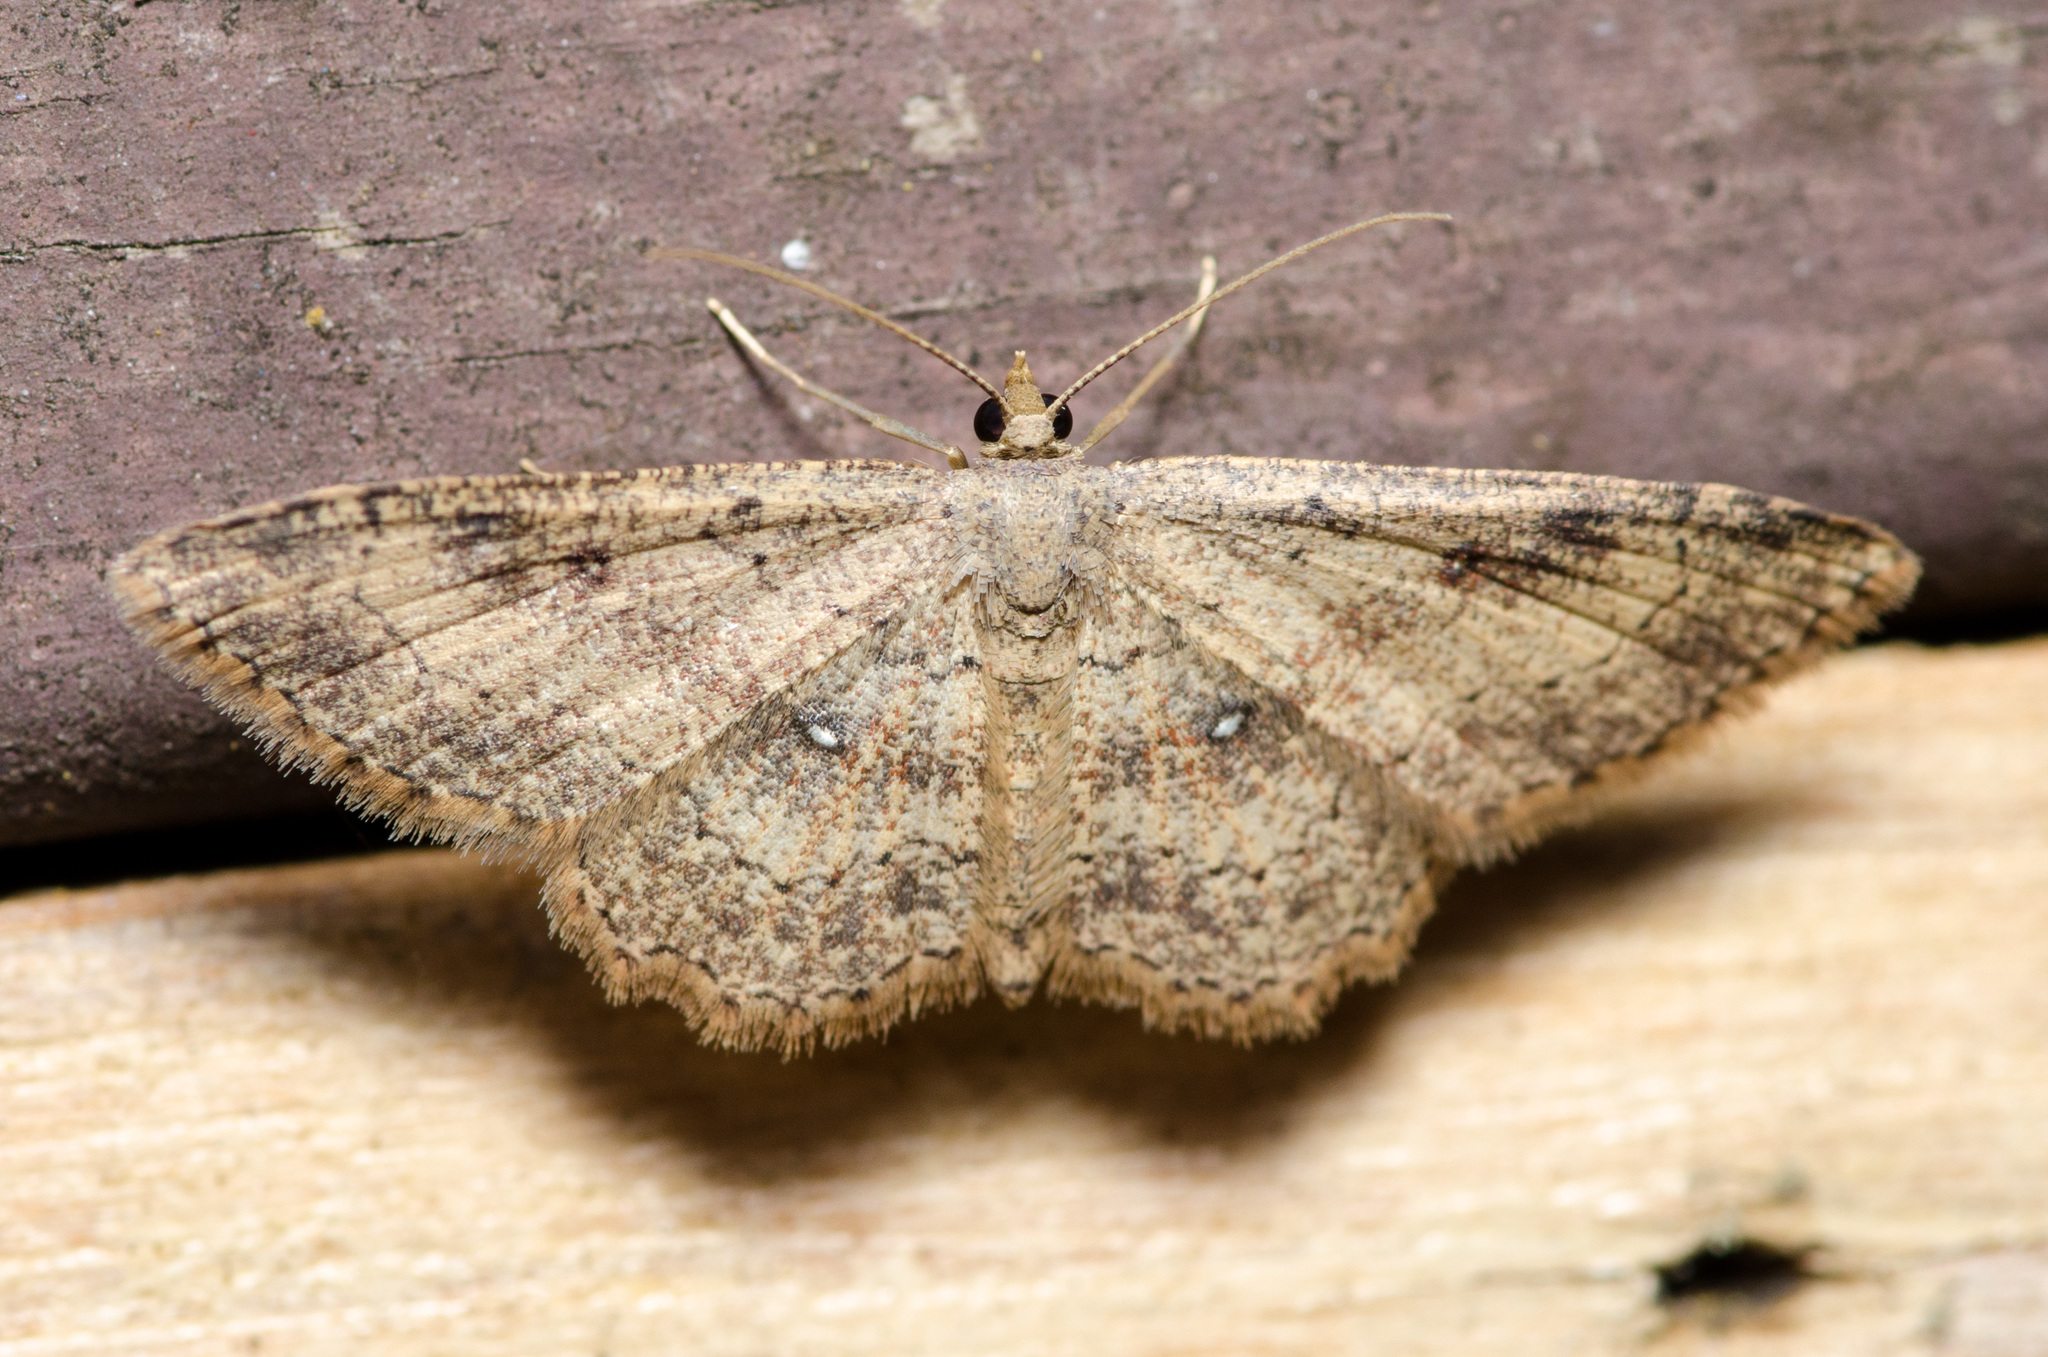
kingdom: Animalia
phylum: Arthropoda
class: Insecta
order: Lepidoptera
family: Geometridae
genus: Cyclophora
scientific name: Cyclophora nanaria
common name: Cankerworm
